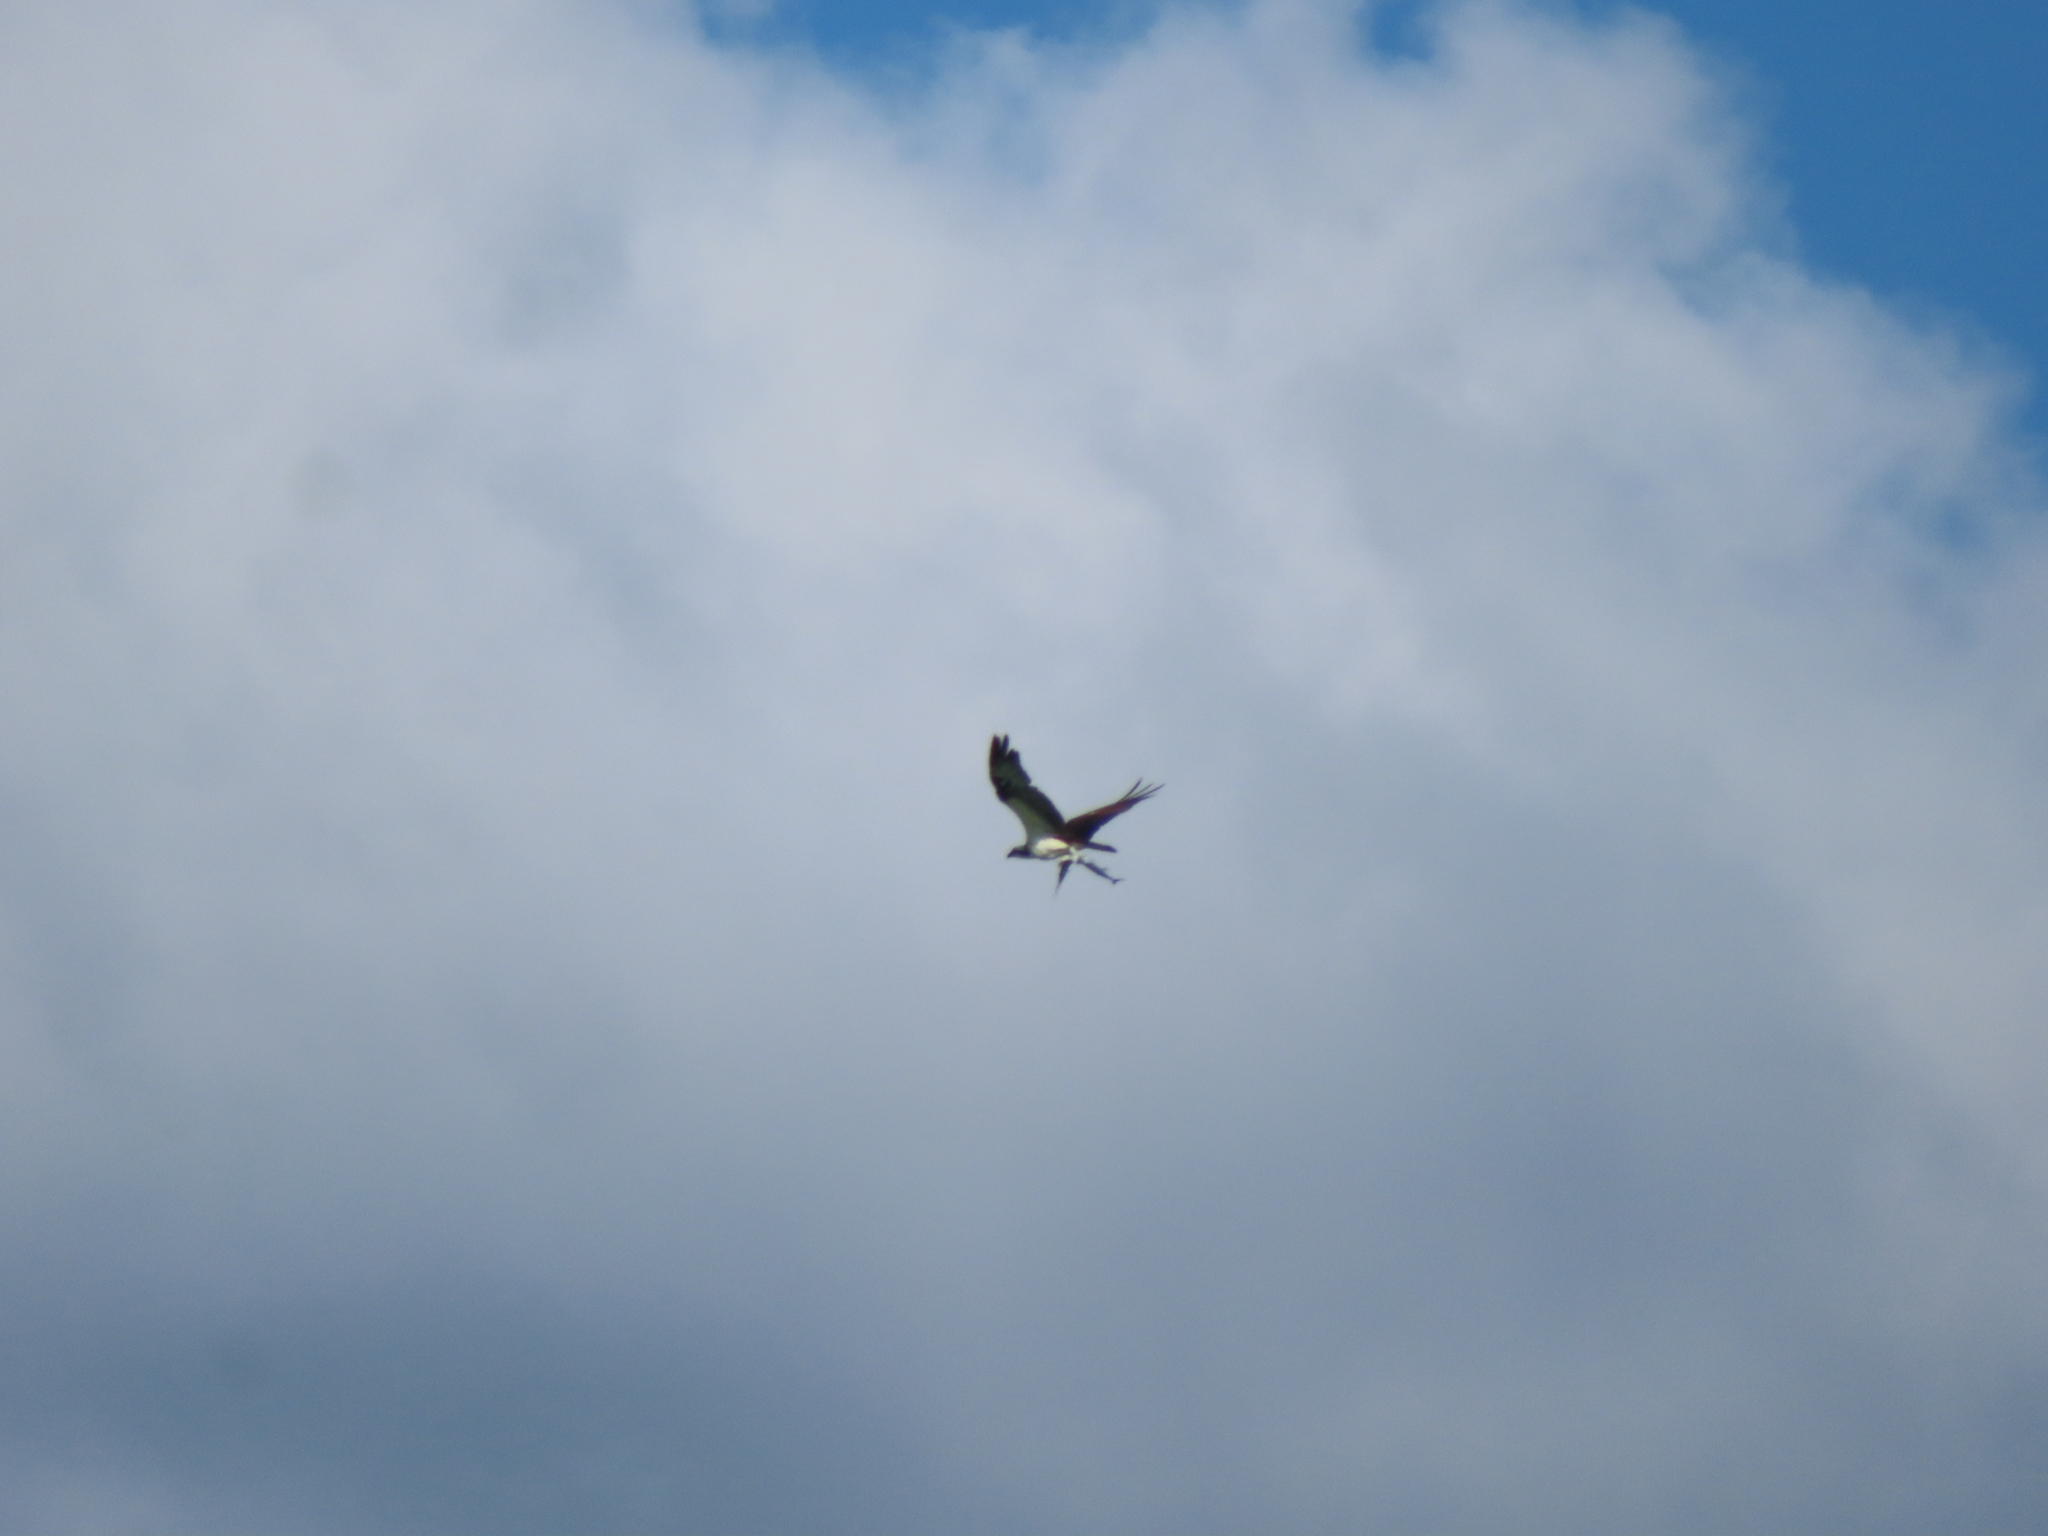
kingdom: Animalia
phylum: Chordata
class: Aves
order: Accipitriformes
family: Pandionidae
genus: Pandion
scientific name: Pandion haliaetus
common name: Osprey
